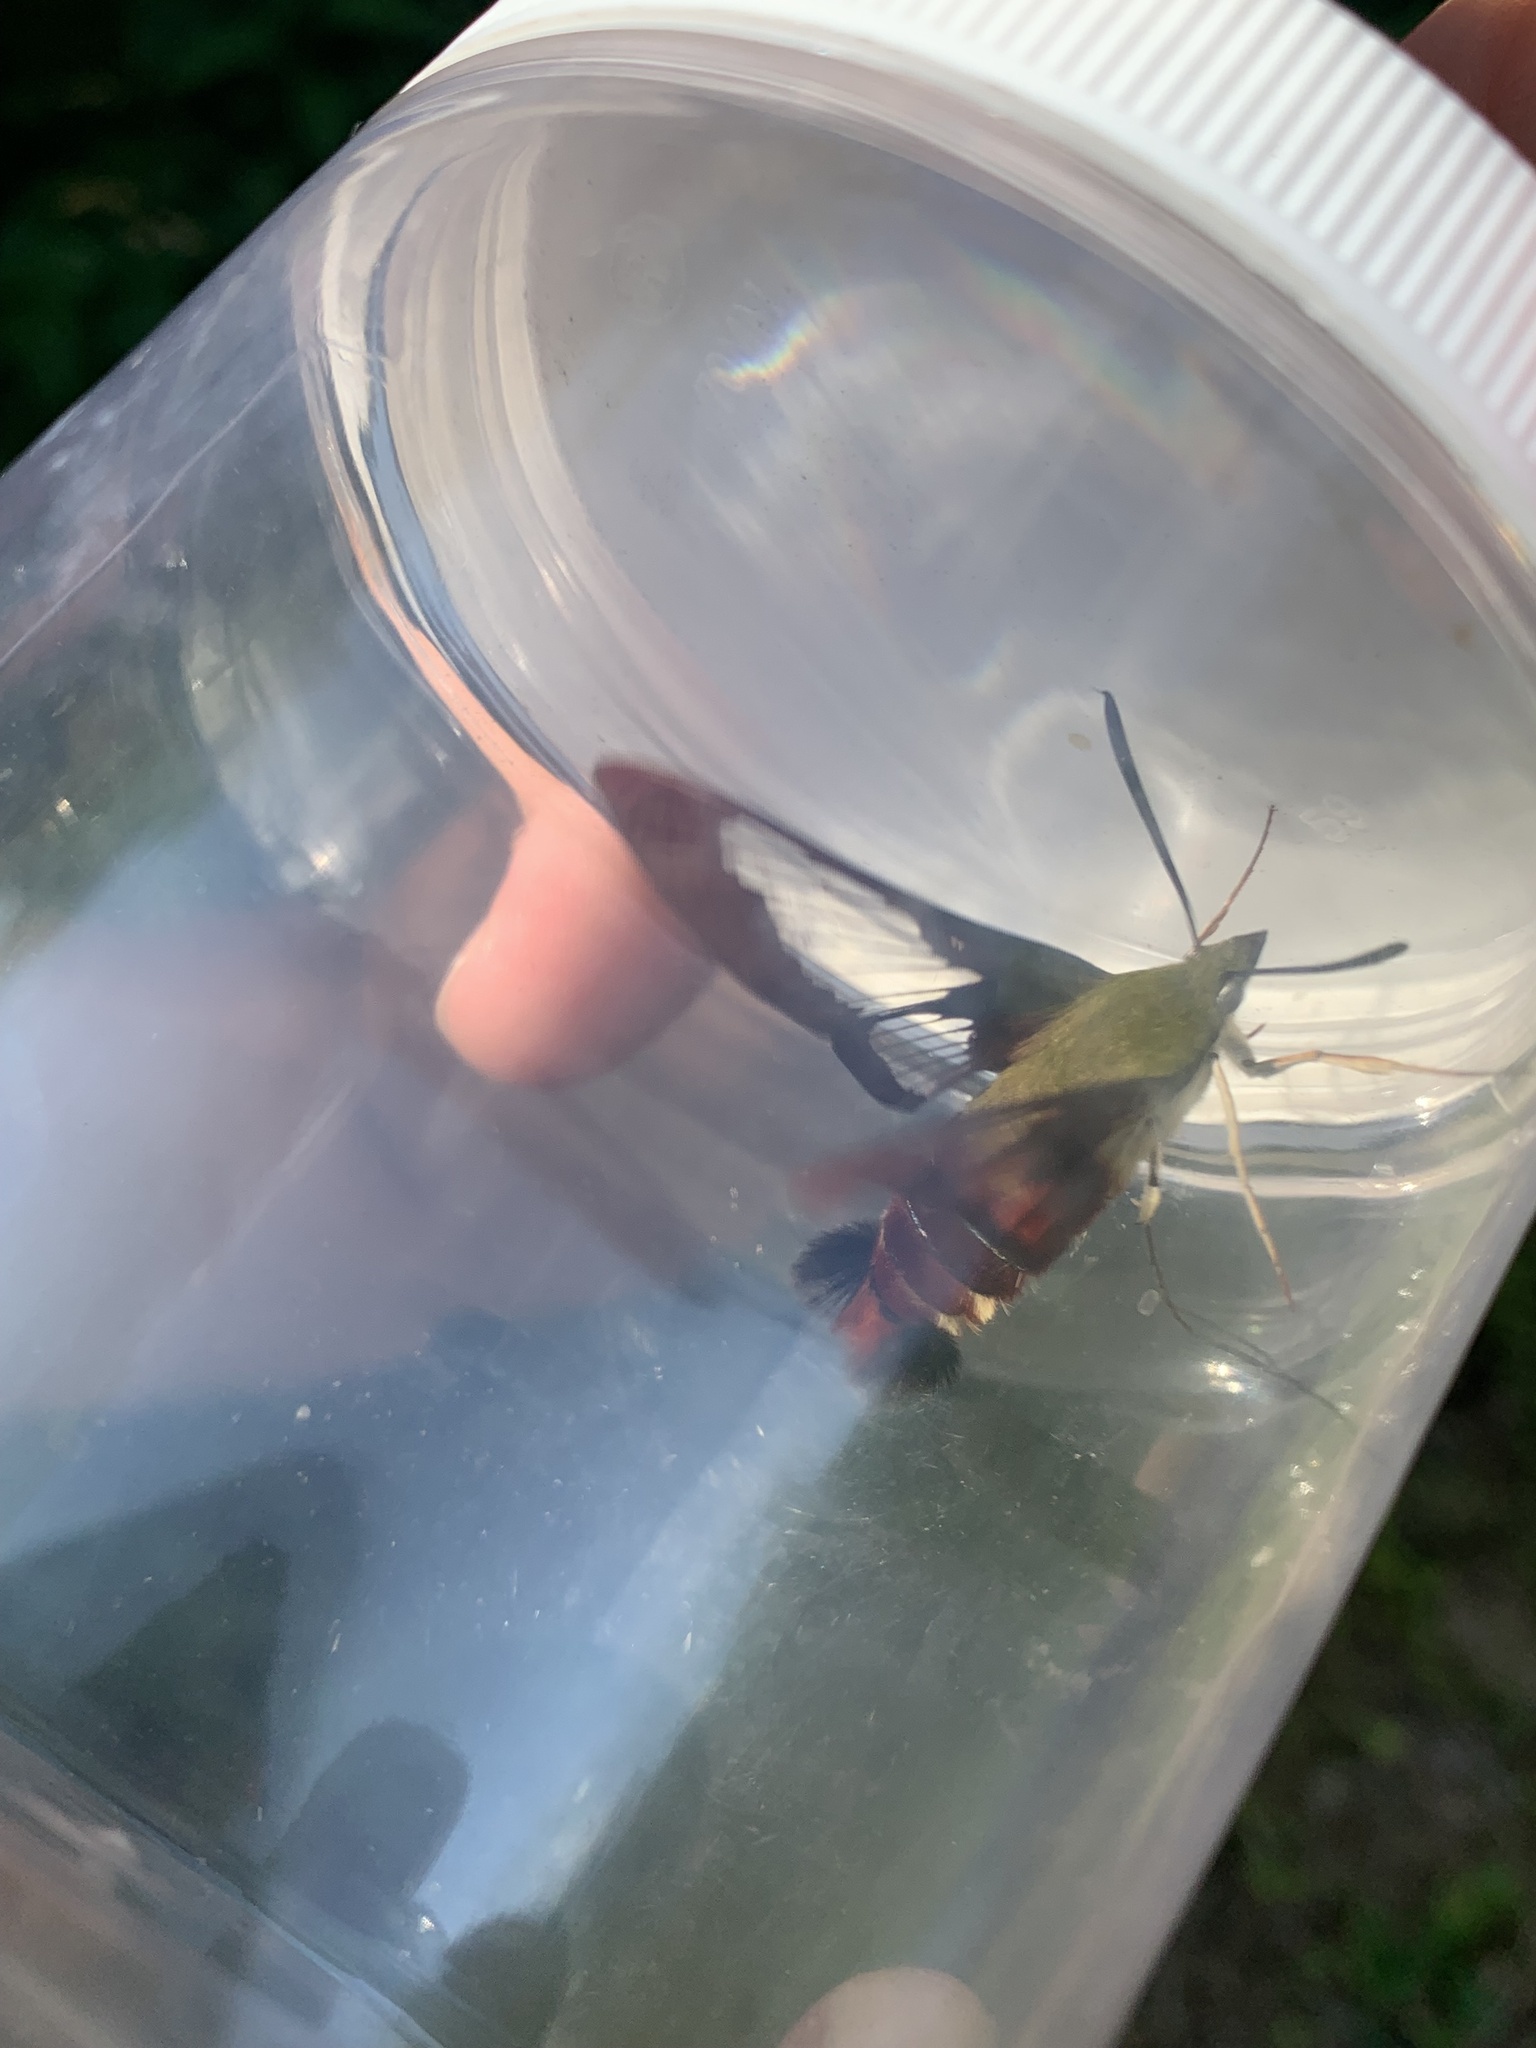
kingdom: Animalia
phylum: Arthropoda
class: Insecta
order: Lepidoptera
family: Sphingidae
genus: Hemaris
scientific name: Hemaris thysbe
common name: Common clear-wing
